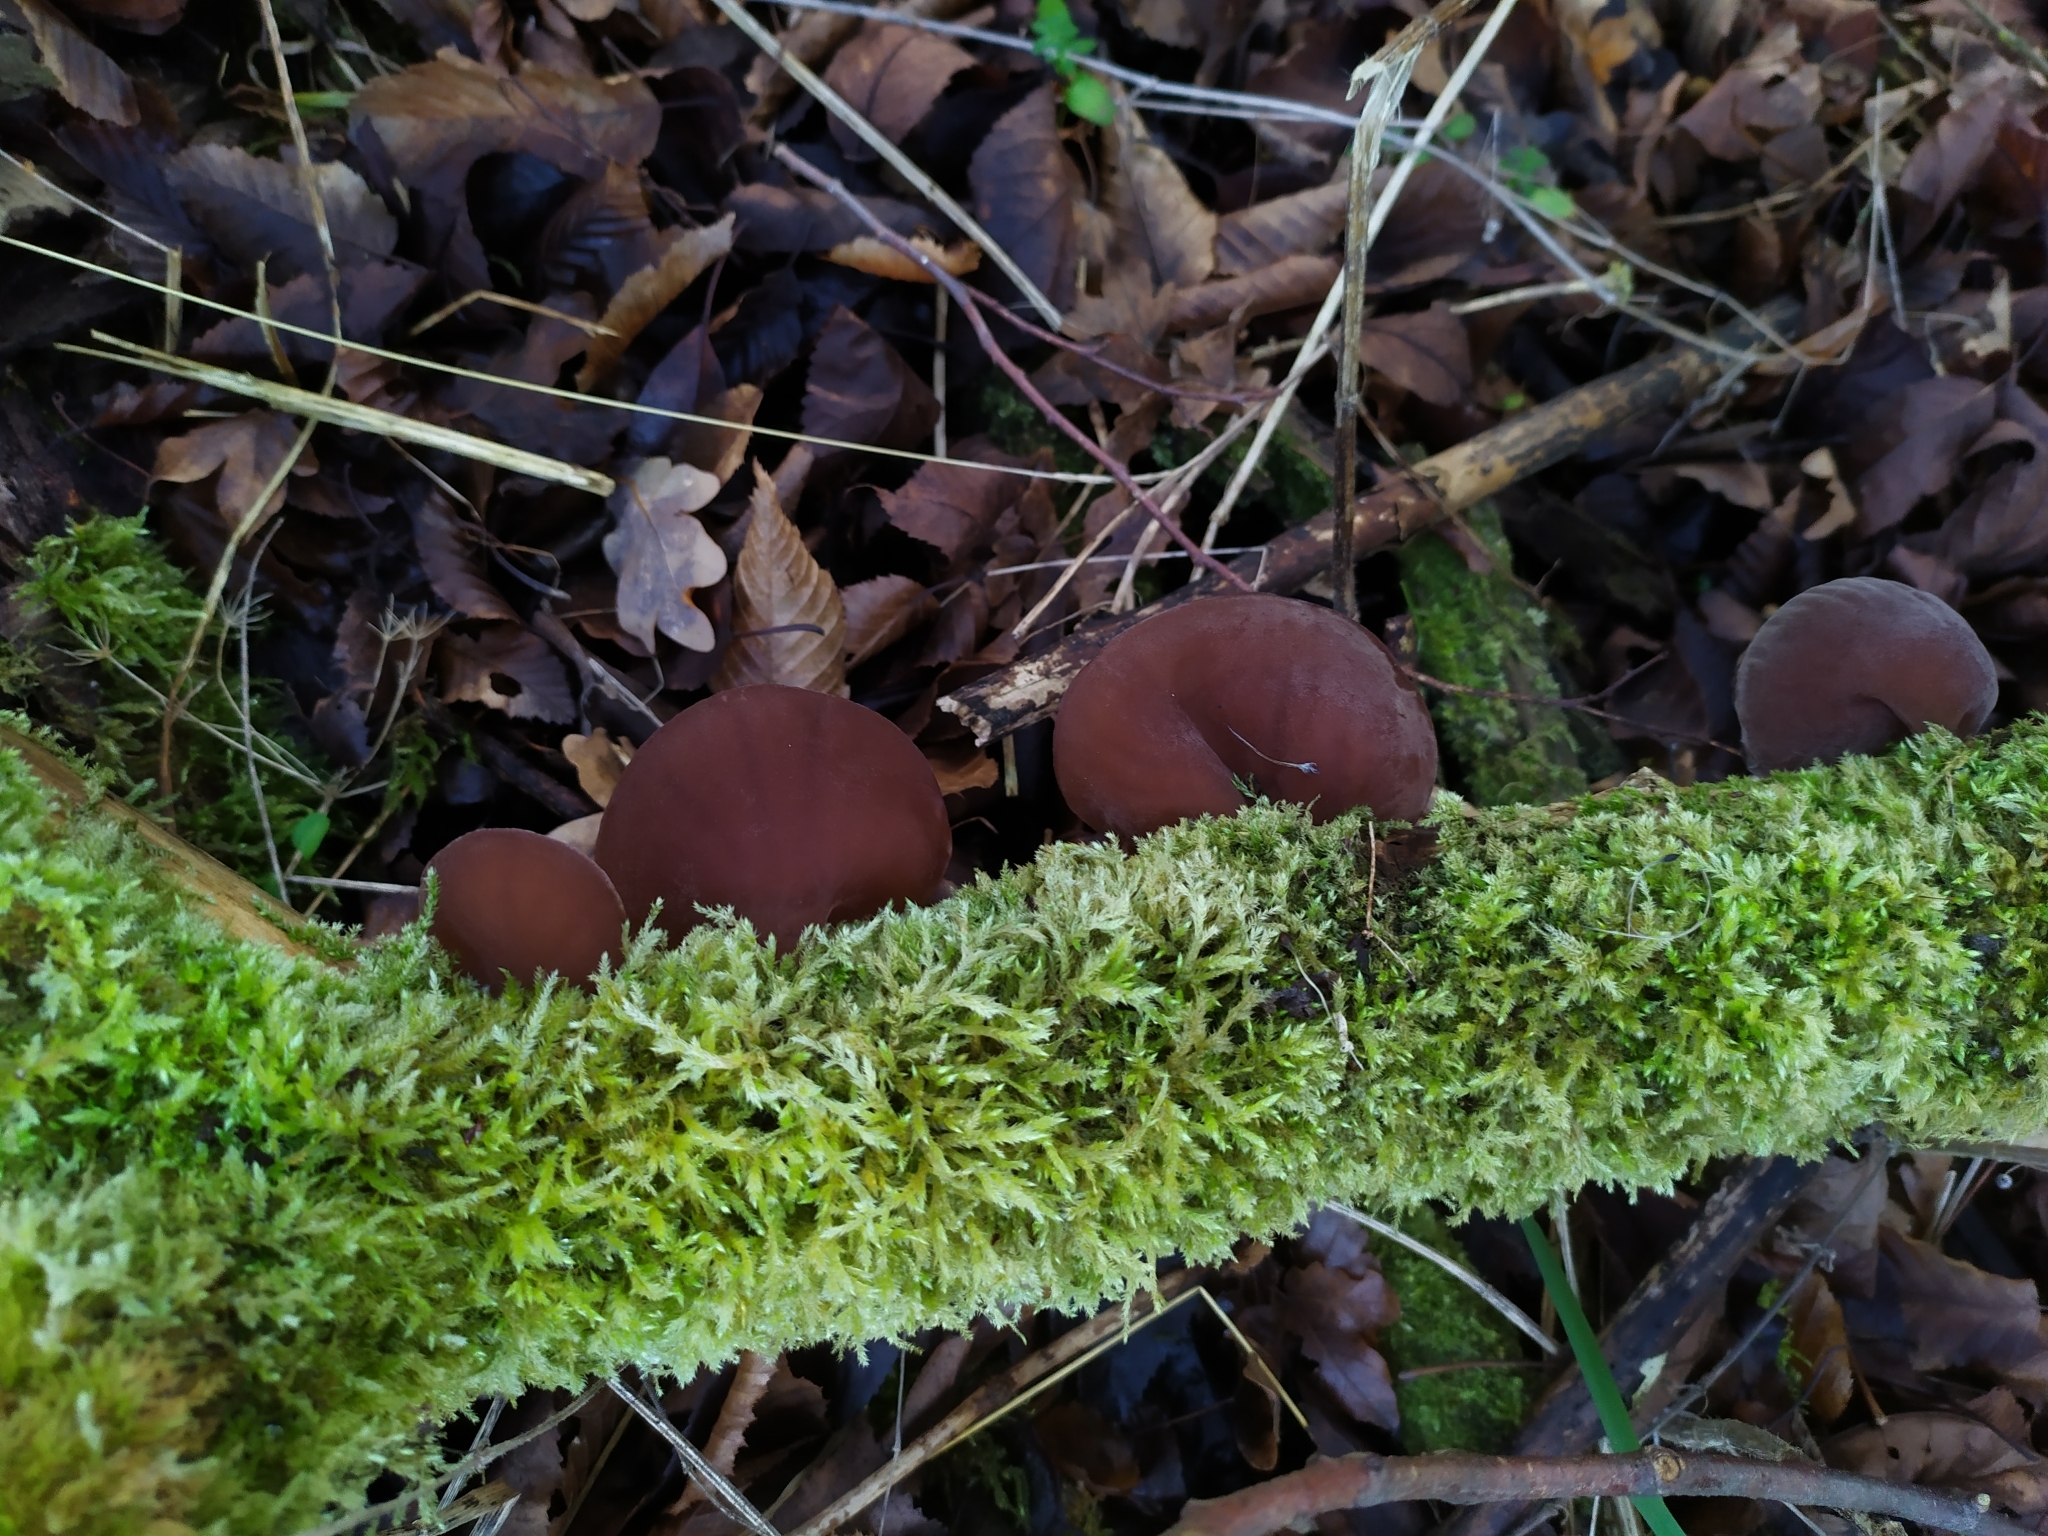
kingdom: Fungi
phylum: Basidiomycota
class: Agaricomycetes
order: Auriculariales
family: Auriculariaceae
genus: Auricularia
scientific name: Auricularia auricula-judae
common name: Jelly ear
